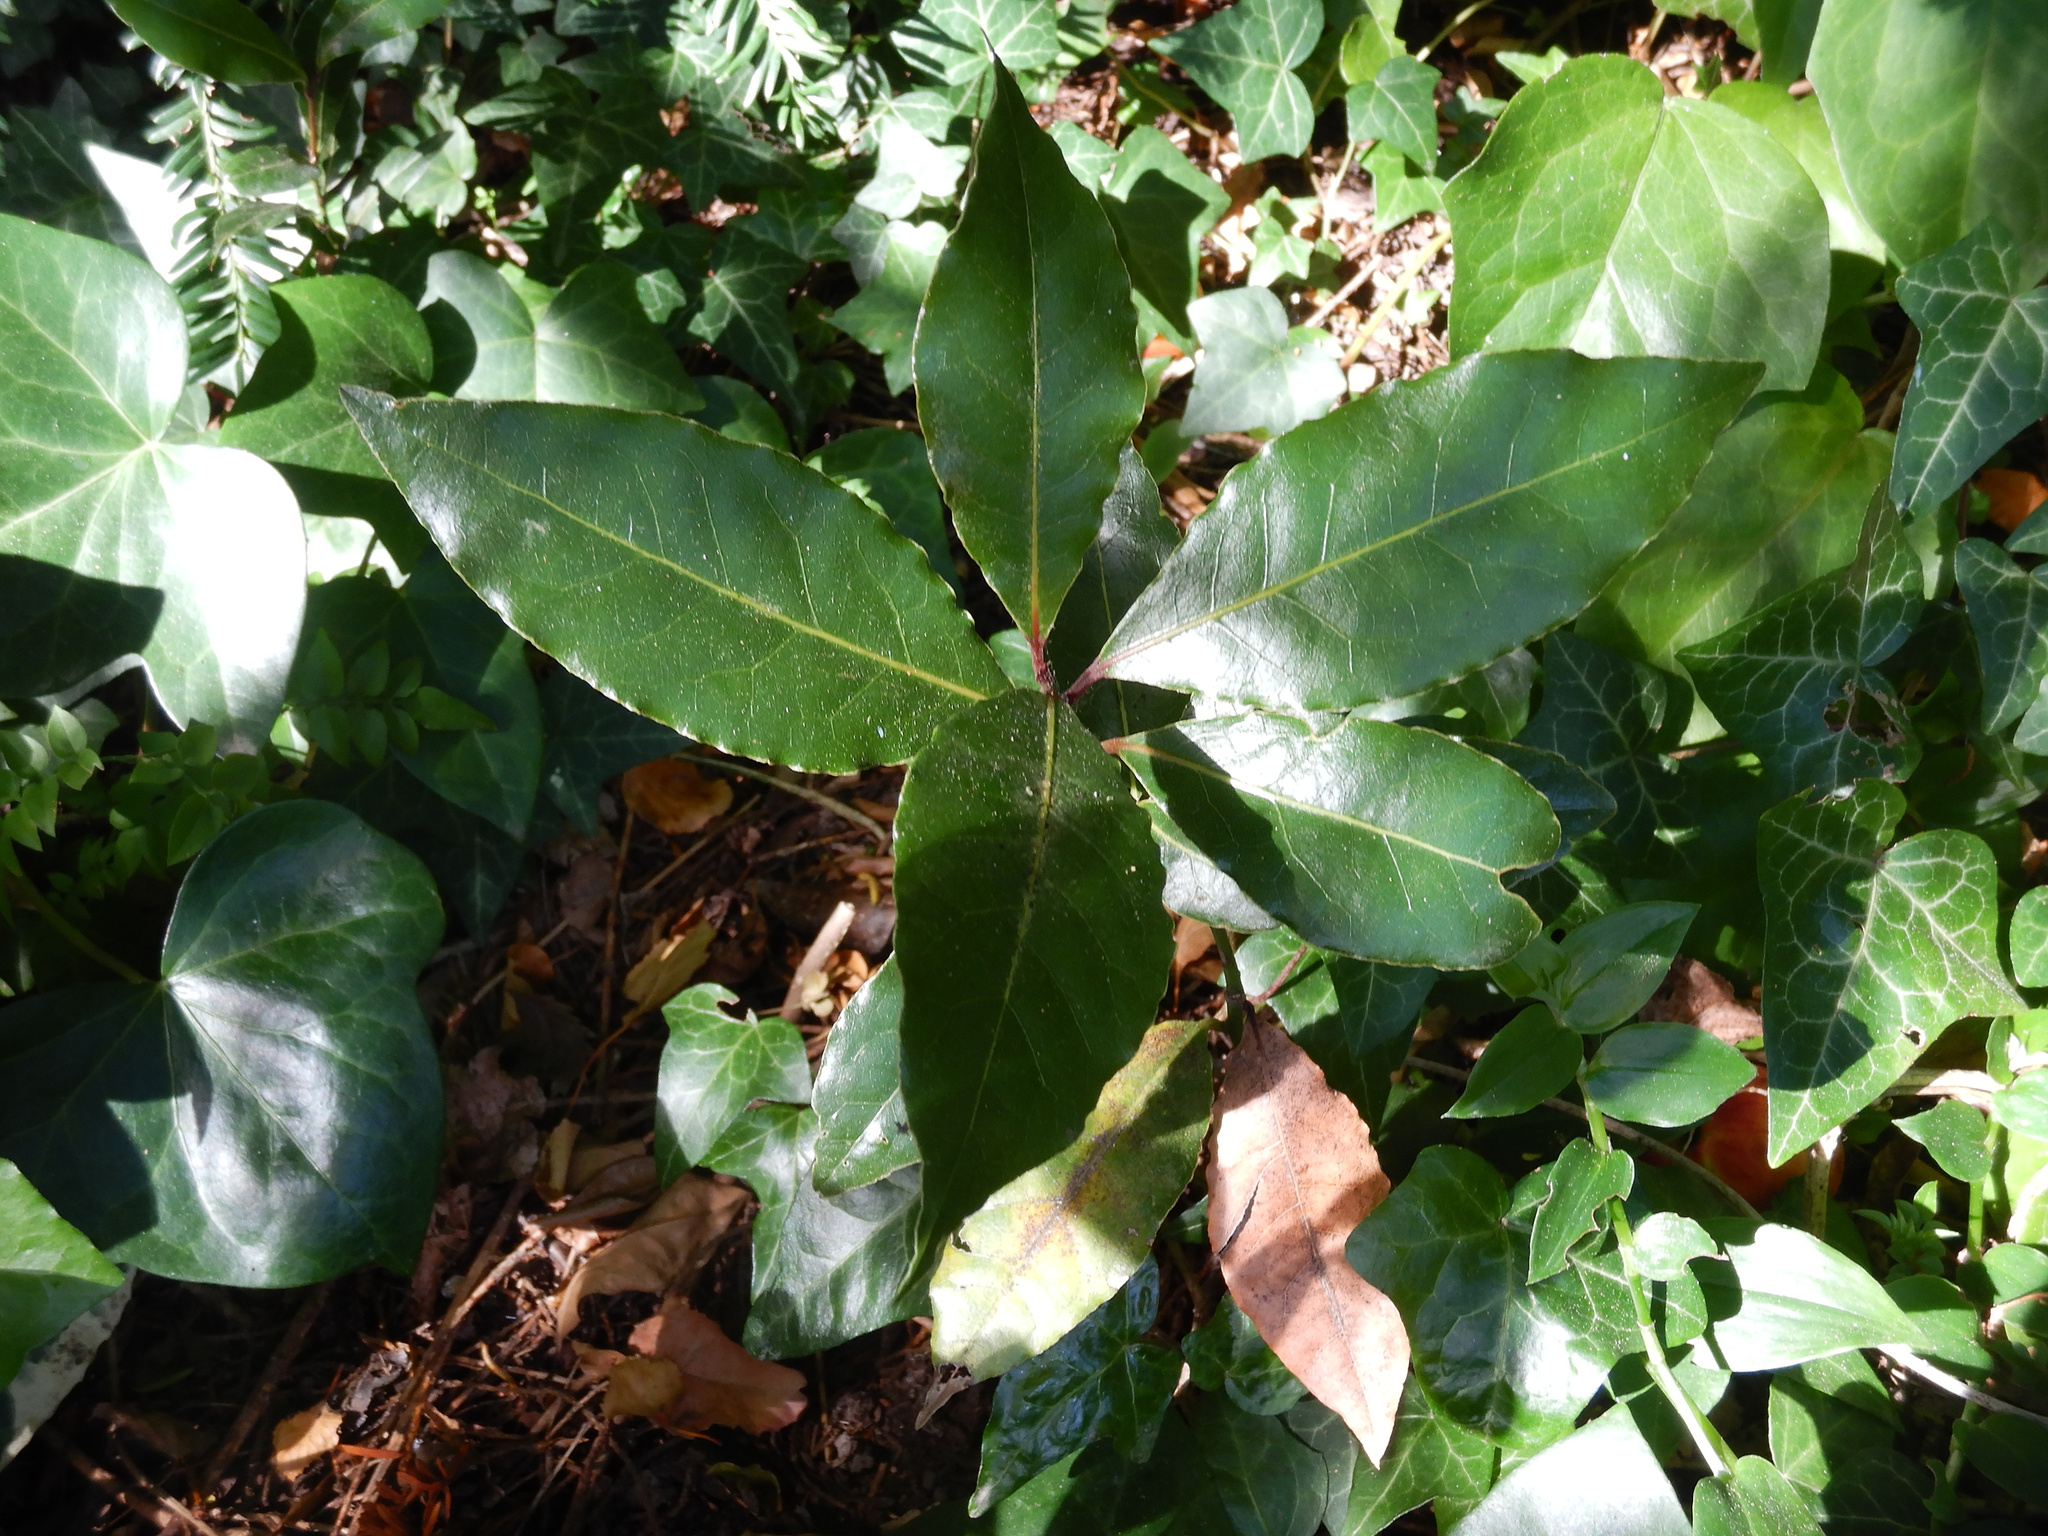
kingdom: Plantae
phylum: Tracheophyta
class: Magnoliopsida
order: Laurales
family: Lauraceae
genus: Laurus
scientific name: Laurus nobilis
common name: Bay
